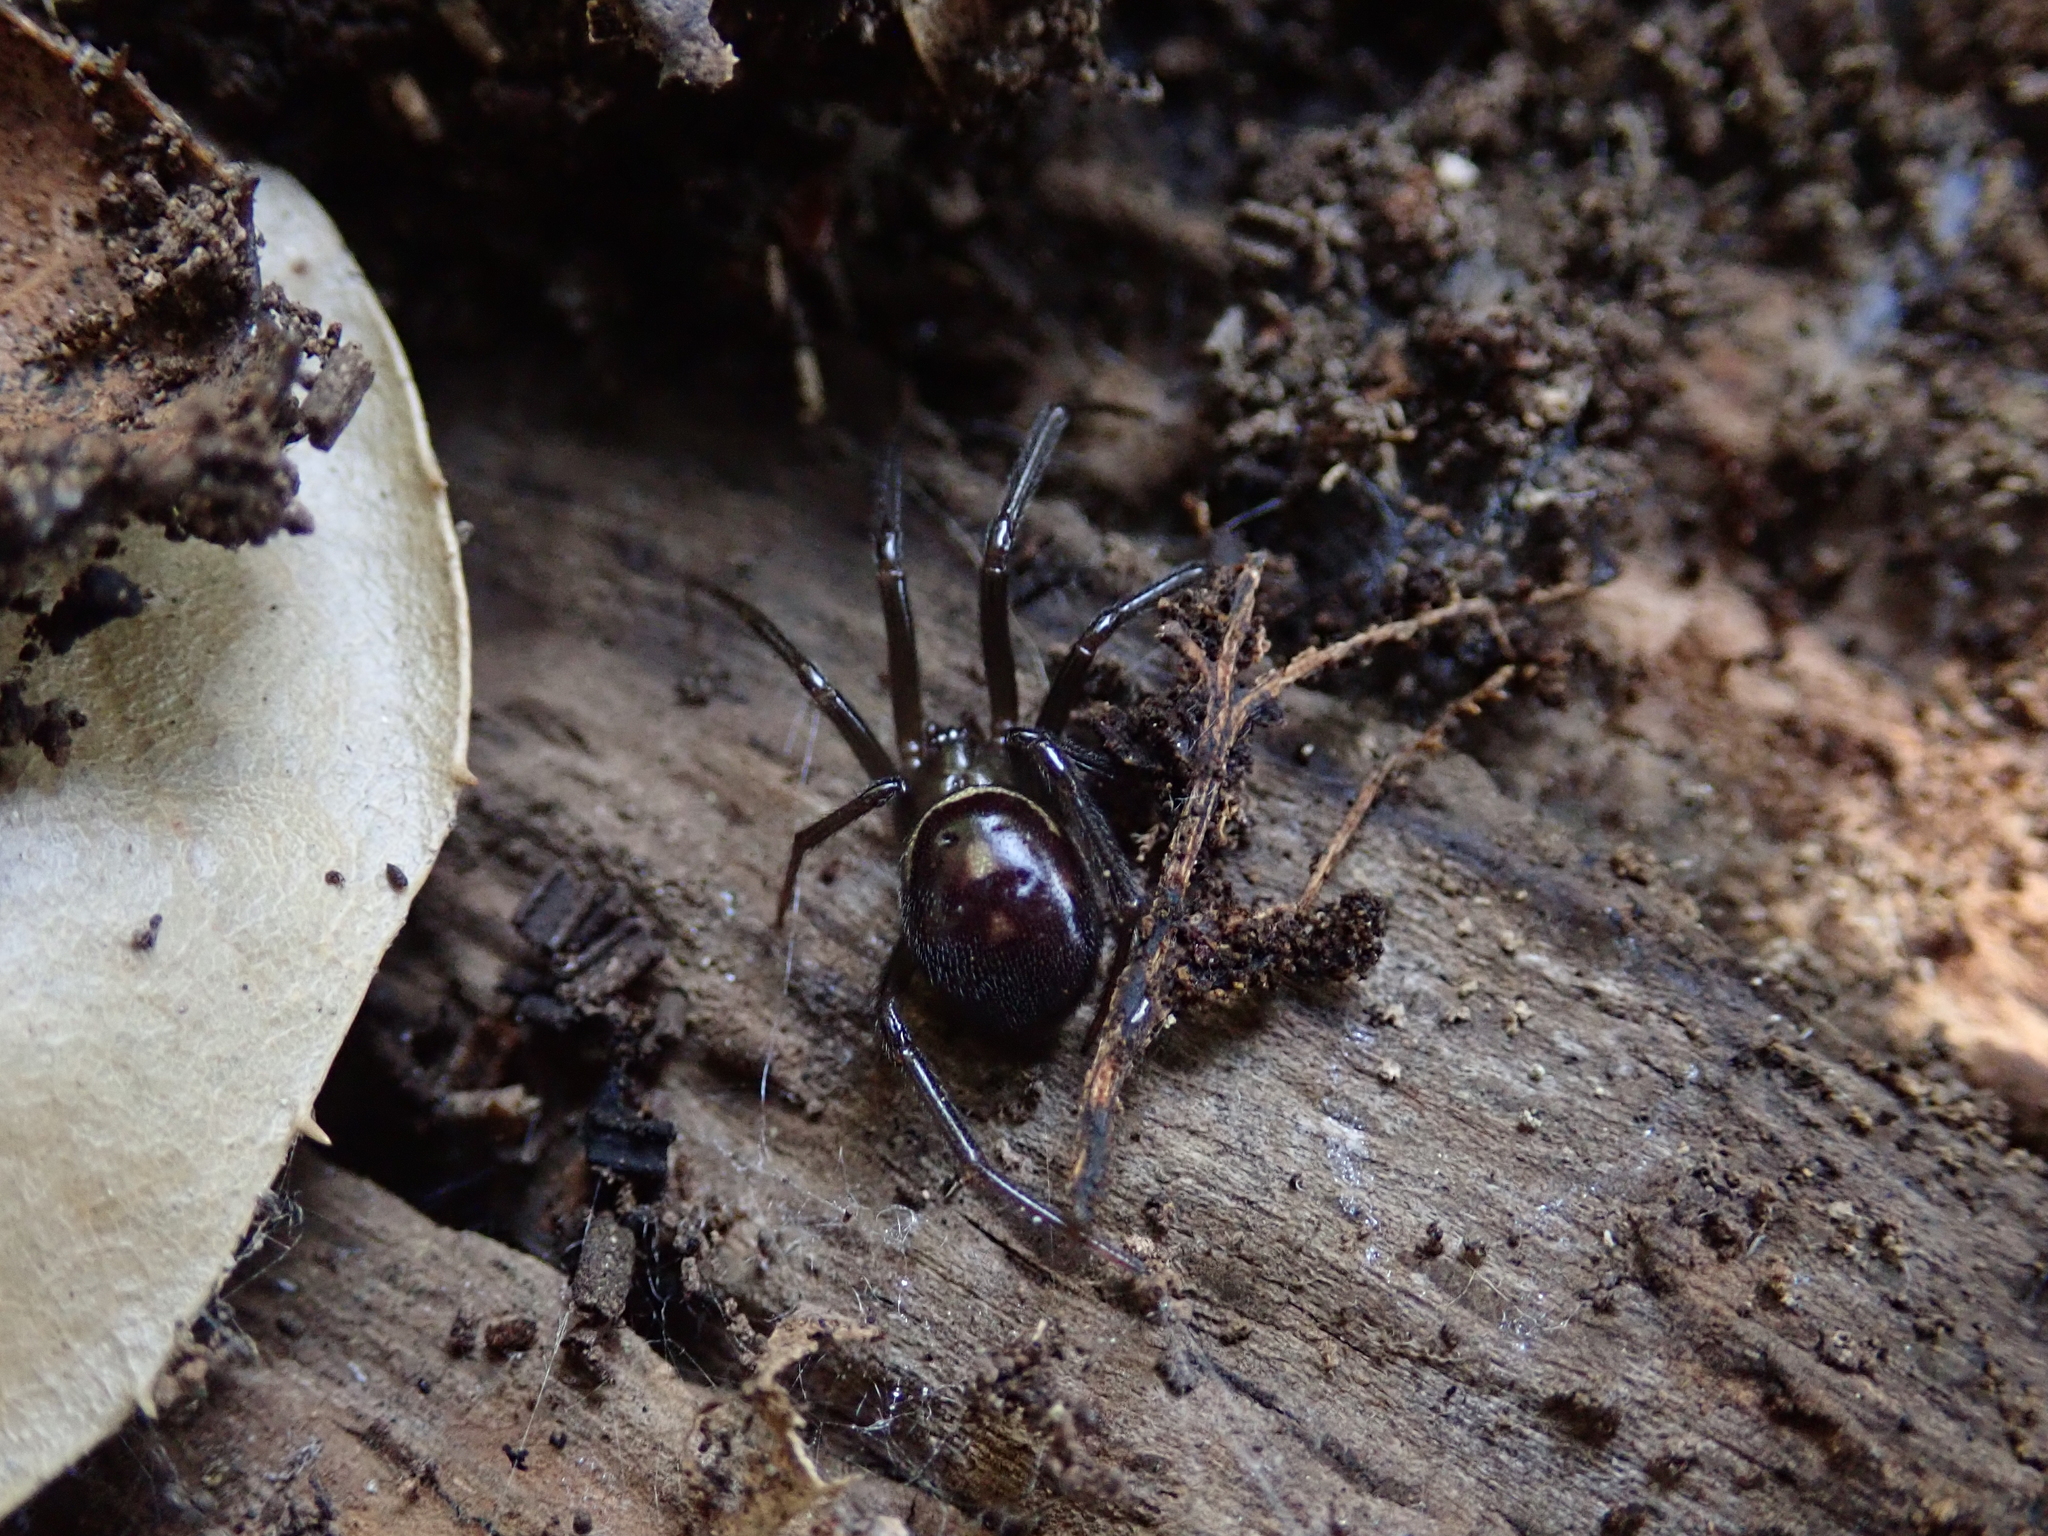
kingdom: Animalia
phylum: Arthropoda
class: Arachnida
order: Araneae
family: Theridiidae
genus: Steatoda
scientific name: Steatoda grossa
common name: False black widow
